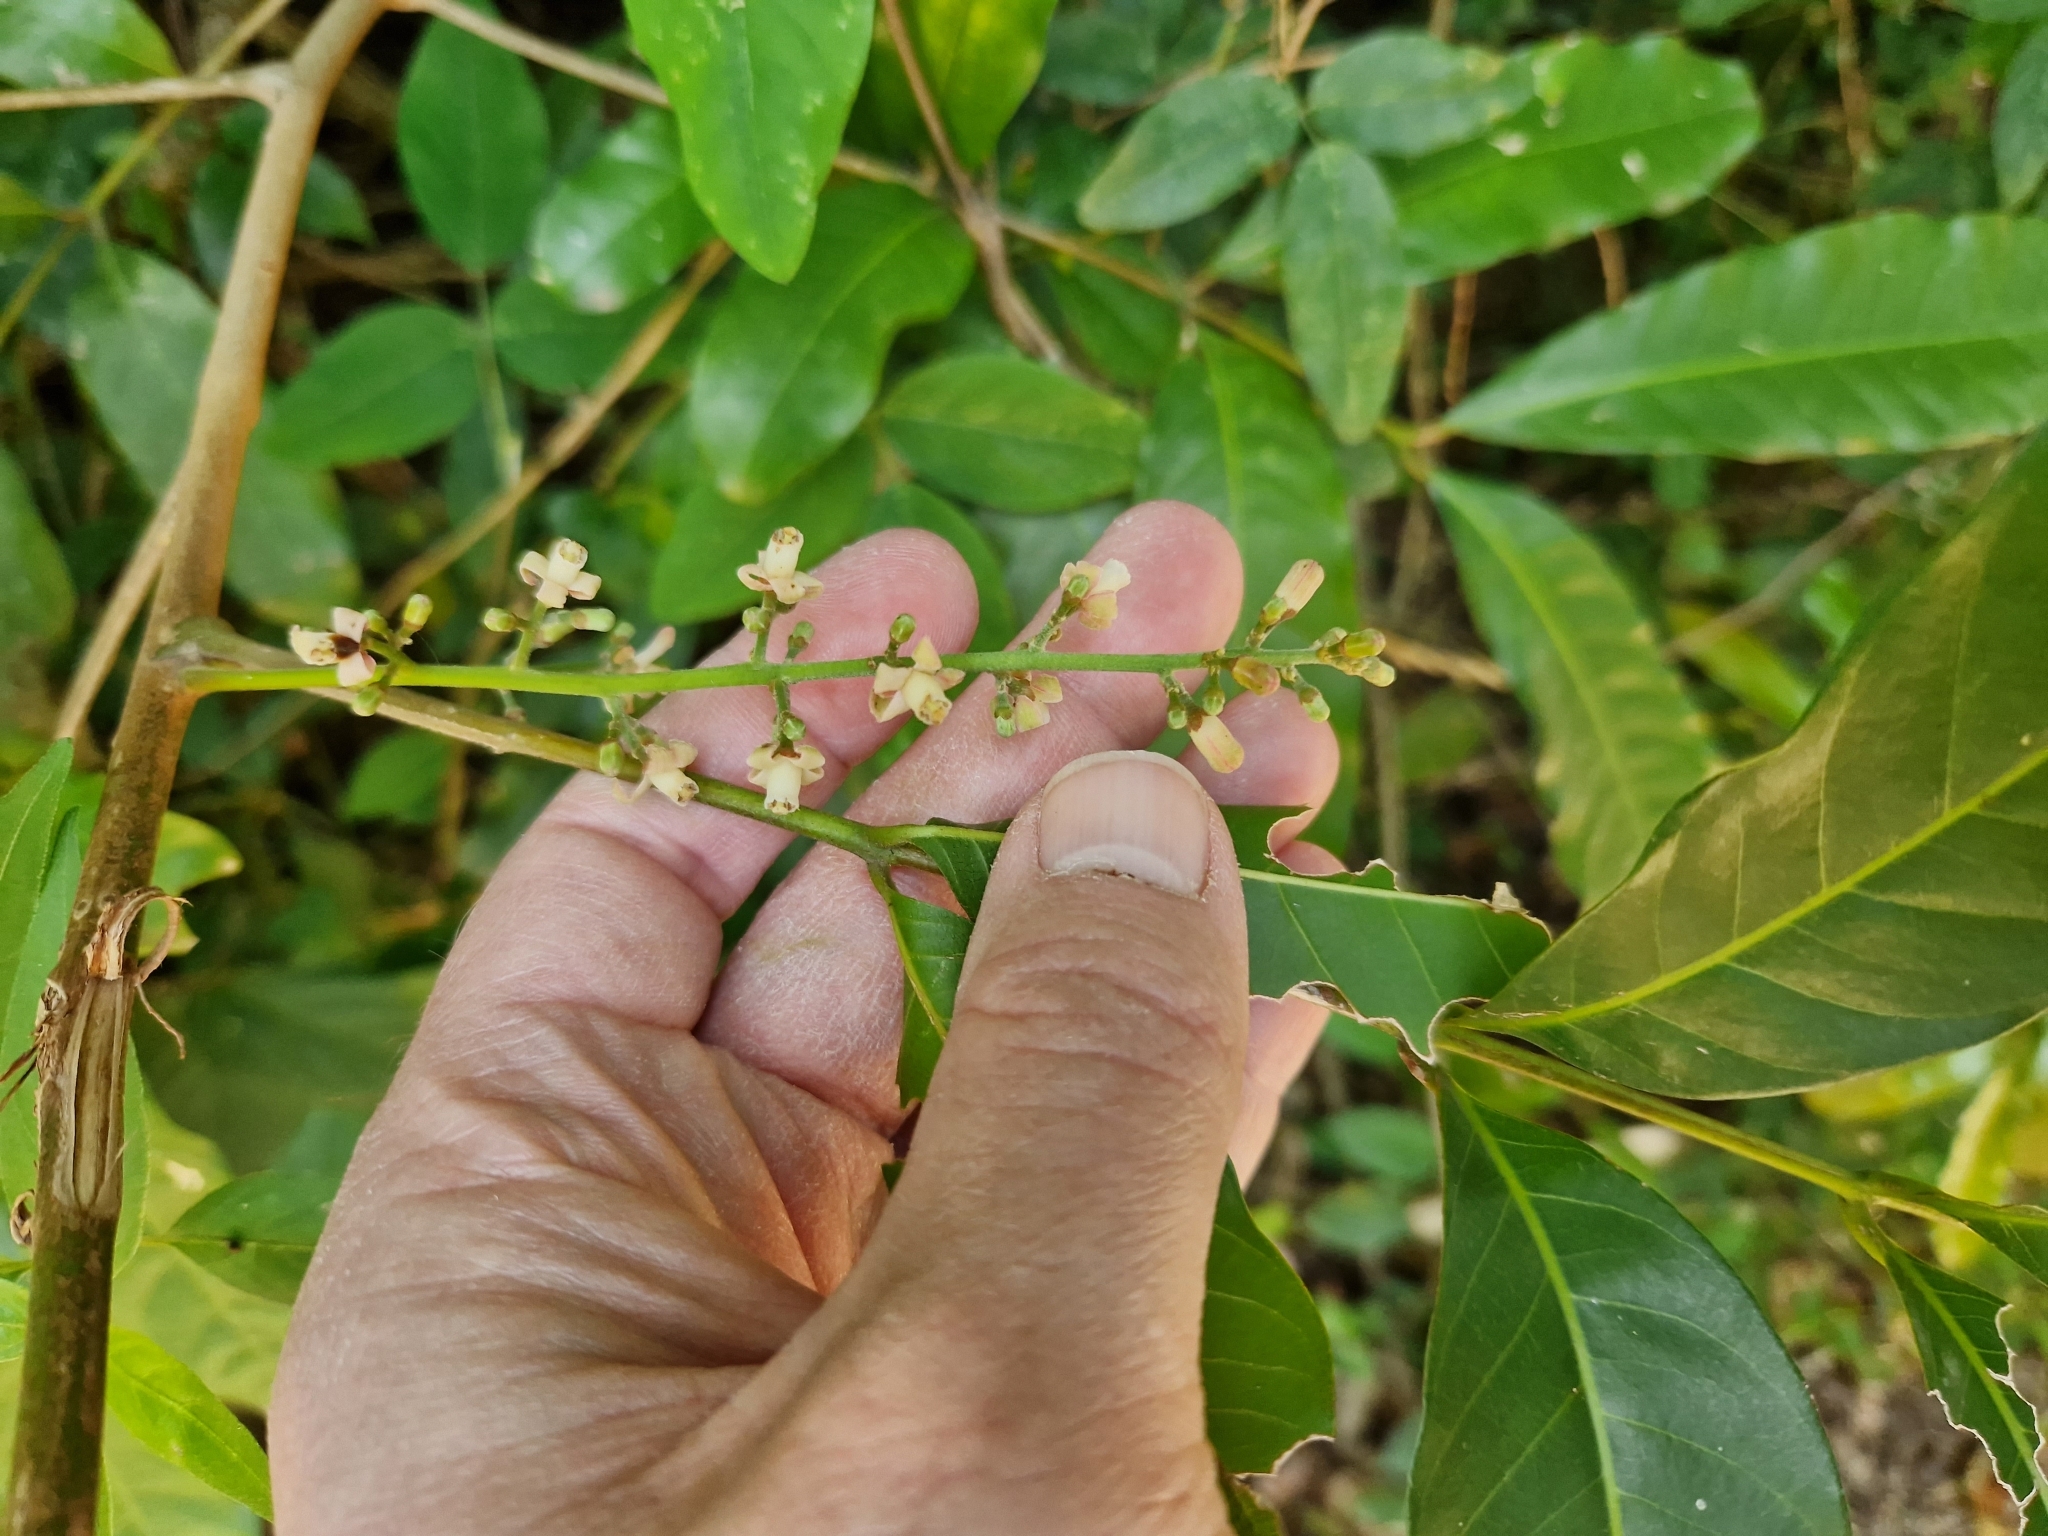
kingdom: Plantae
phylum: Tracheophyta
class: Magnoliopsida
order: Sapindales
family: Meliaceae
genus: Guarea
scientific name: Guarea macrophylla
